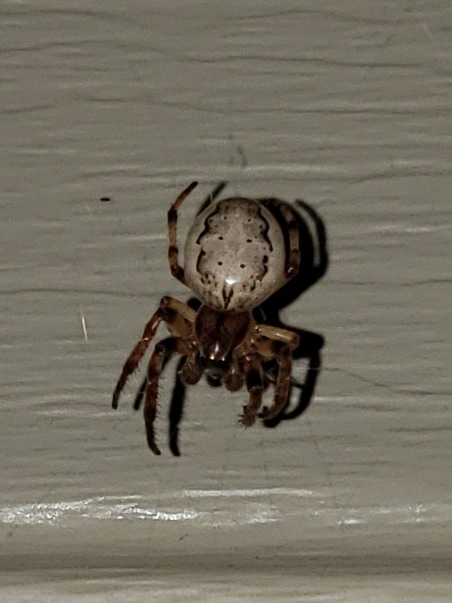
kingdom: Animalia
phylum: Arthropoda
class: Arachnida
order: Araneae
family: Araneidae
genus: Larinioides
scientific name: Larinioides cornutus
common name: Furrow orbweaver
